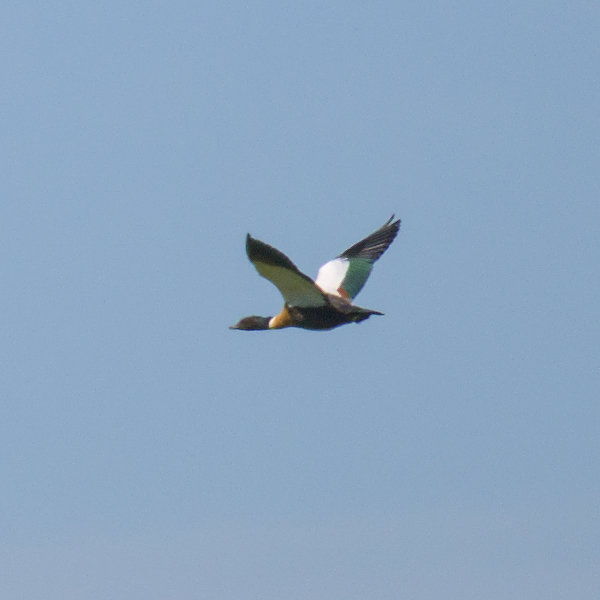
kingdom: Animalia
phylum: Chordata
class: Aves
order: Anseriformes
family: Anatidae
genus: Tadorna
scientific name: Tadorna tadornoides
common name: Australian shelduck
